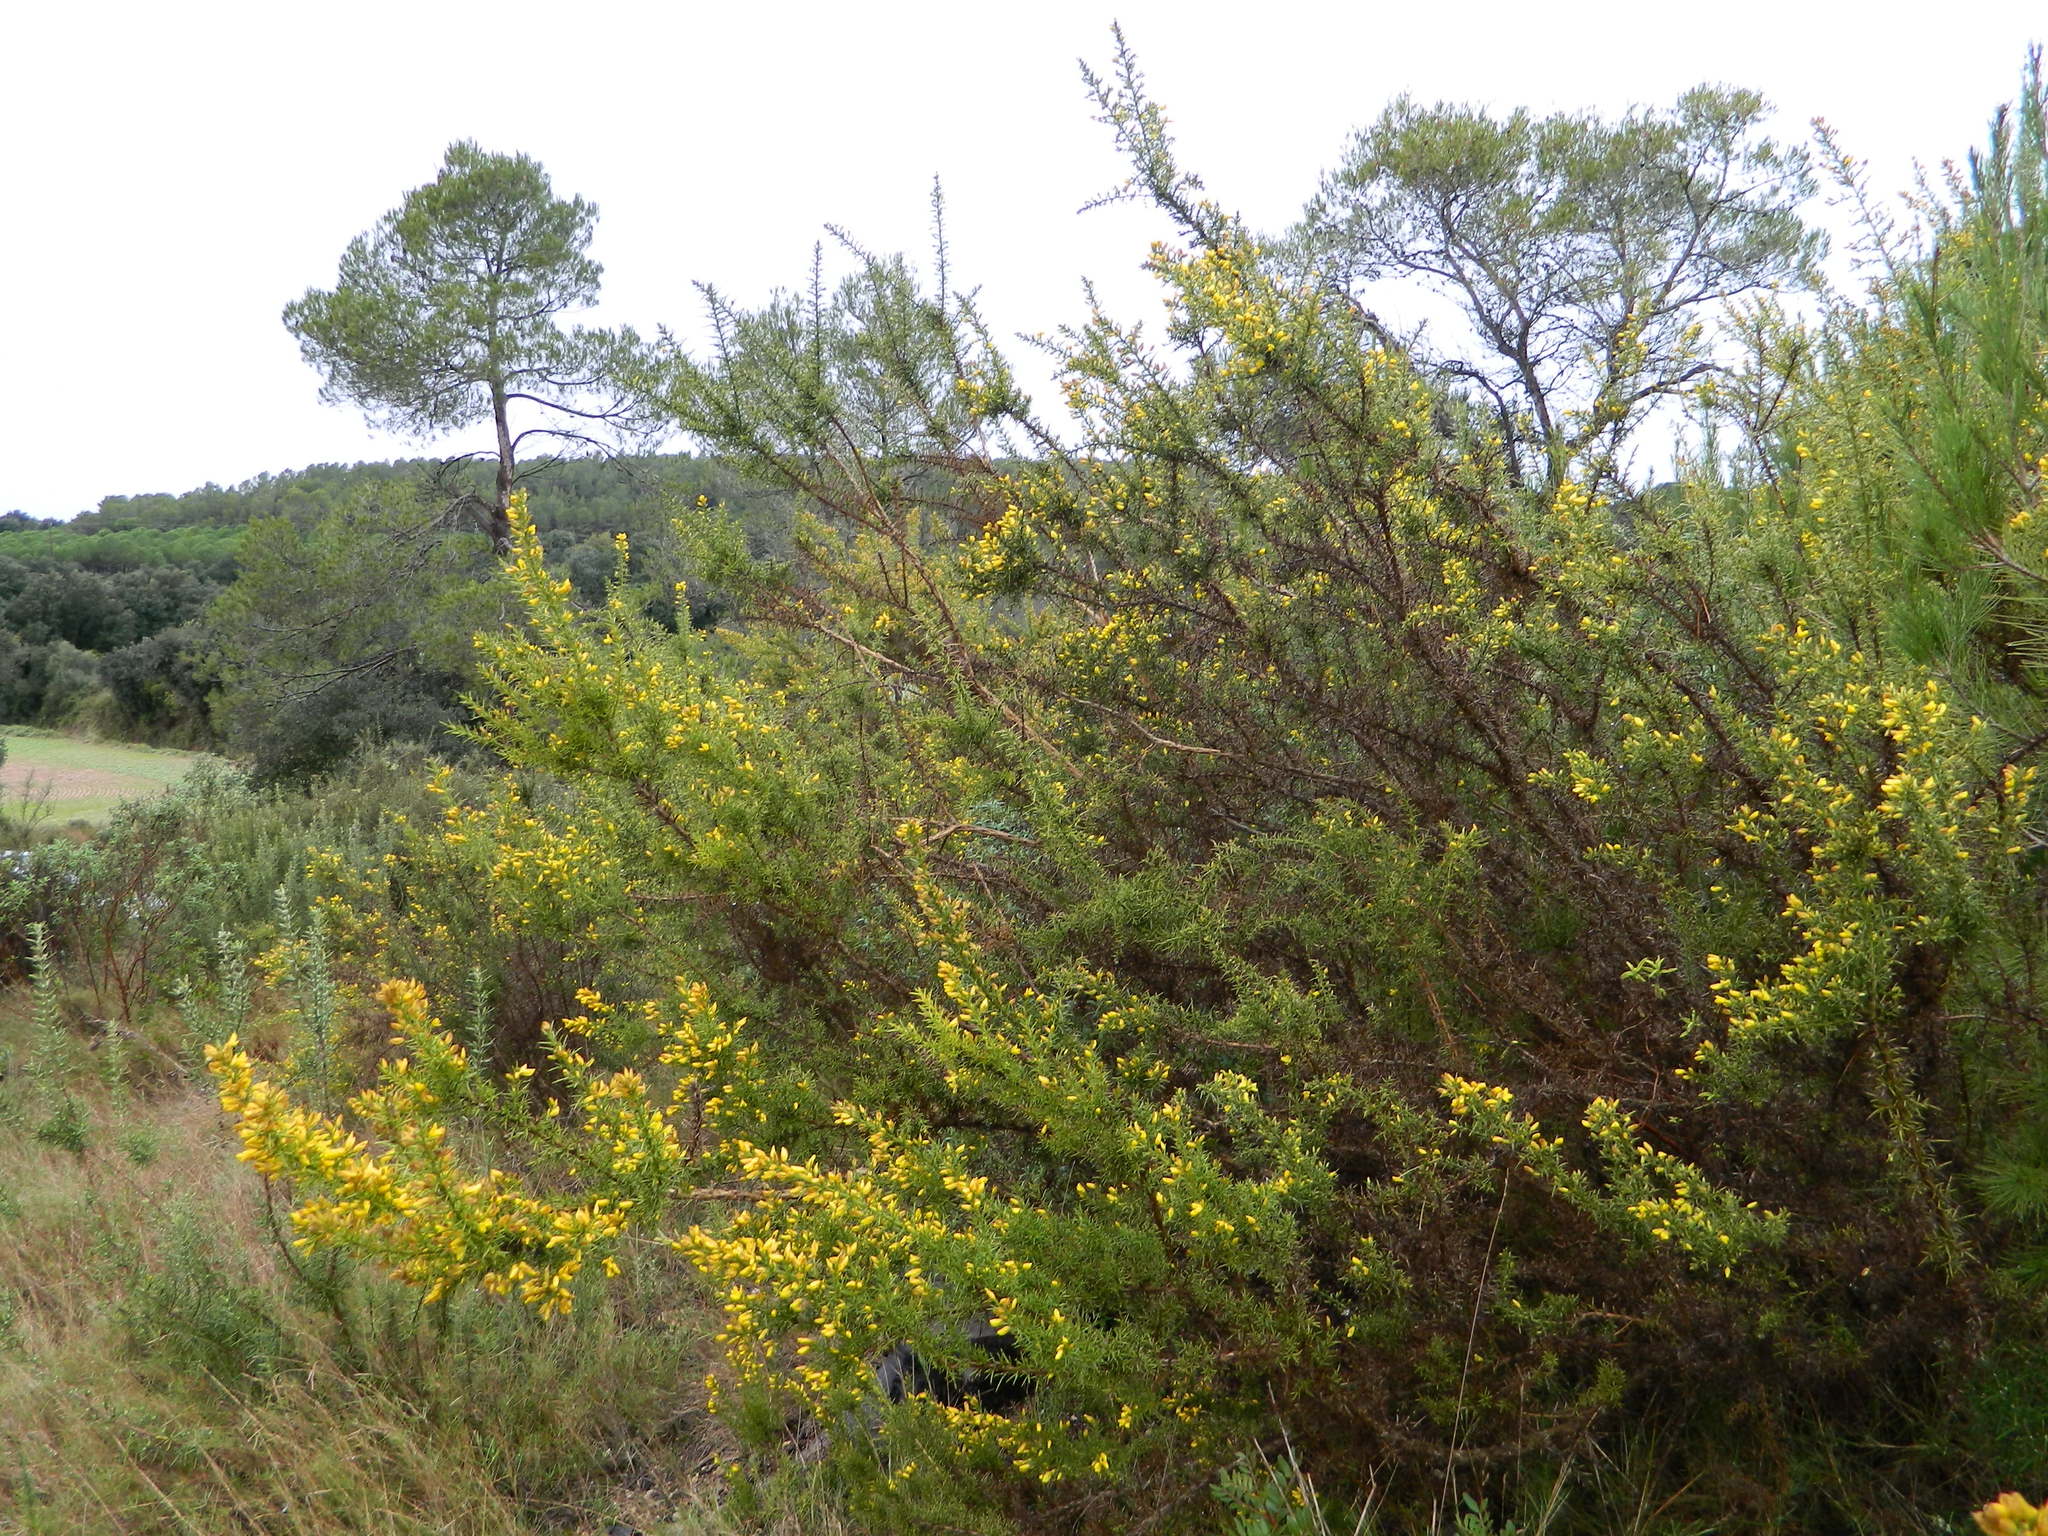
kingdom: Plantae
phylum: Tracheophyta
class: Magnoliopsida
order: Fabales
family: Fabaceae
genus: Ulex
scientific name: Ulex parviflorus
